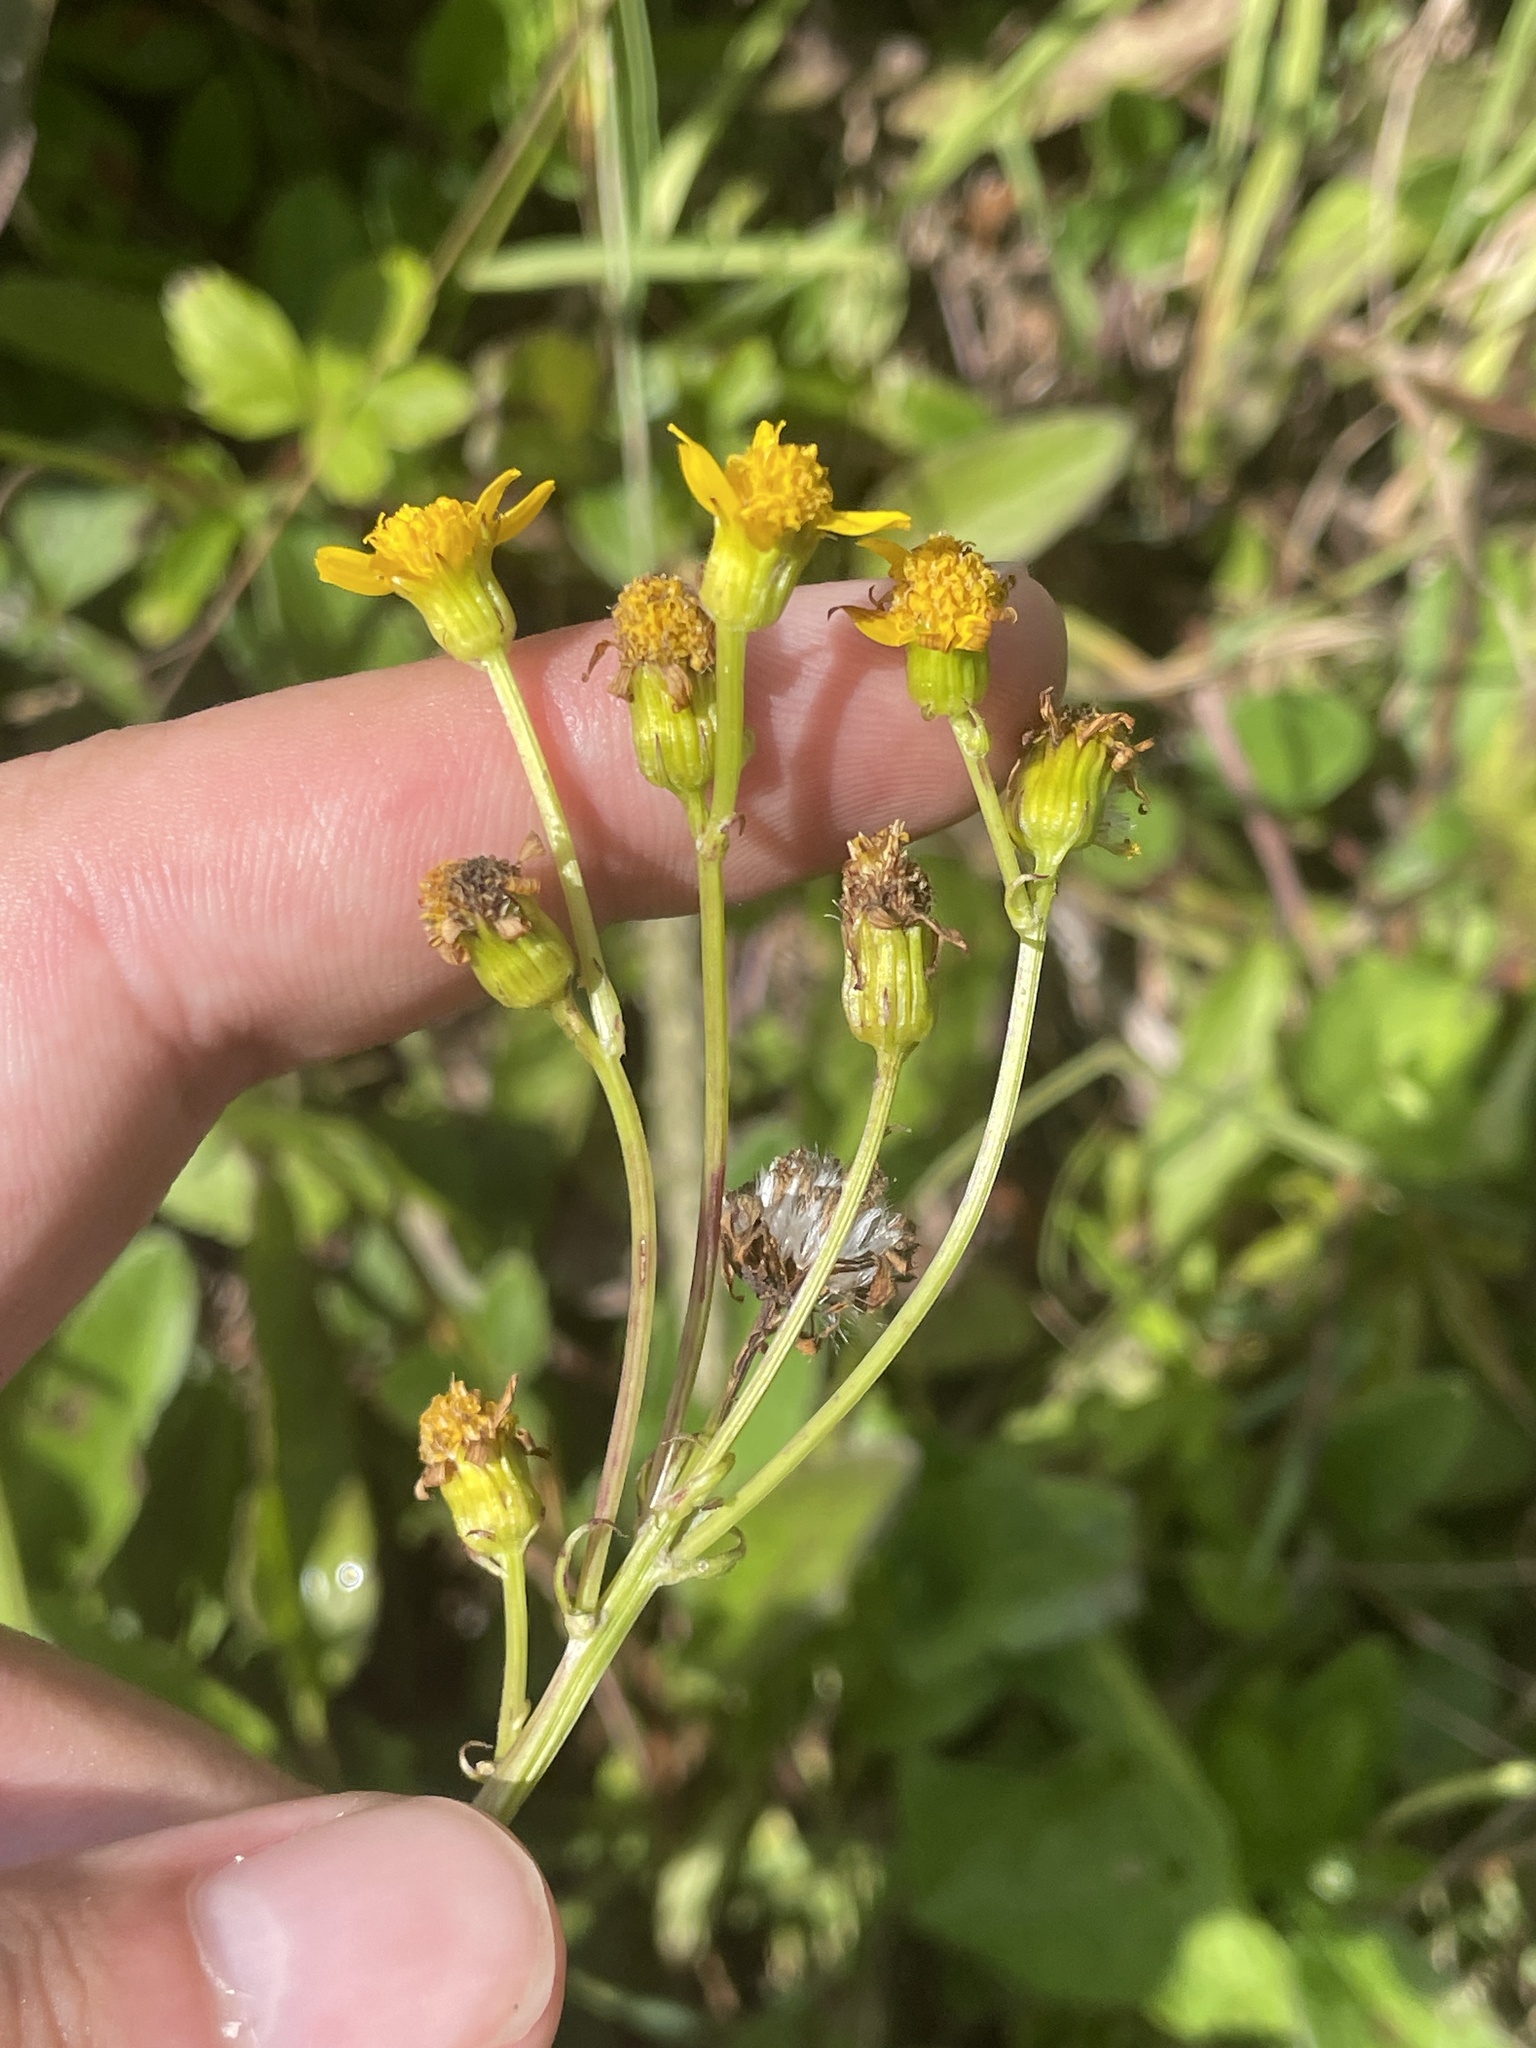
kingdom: Plantae
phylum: Tracheophyta
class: Magnoliopsida
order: Asterales
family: Asteraceae
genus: Packera
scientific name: Packera schweinitziana
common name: Schweinitz's ragwort
